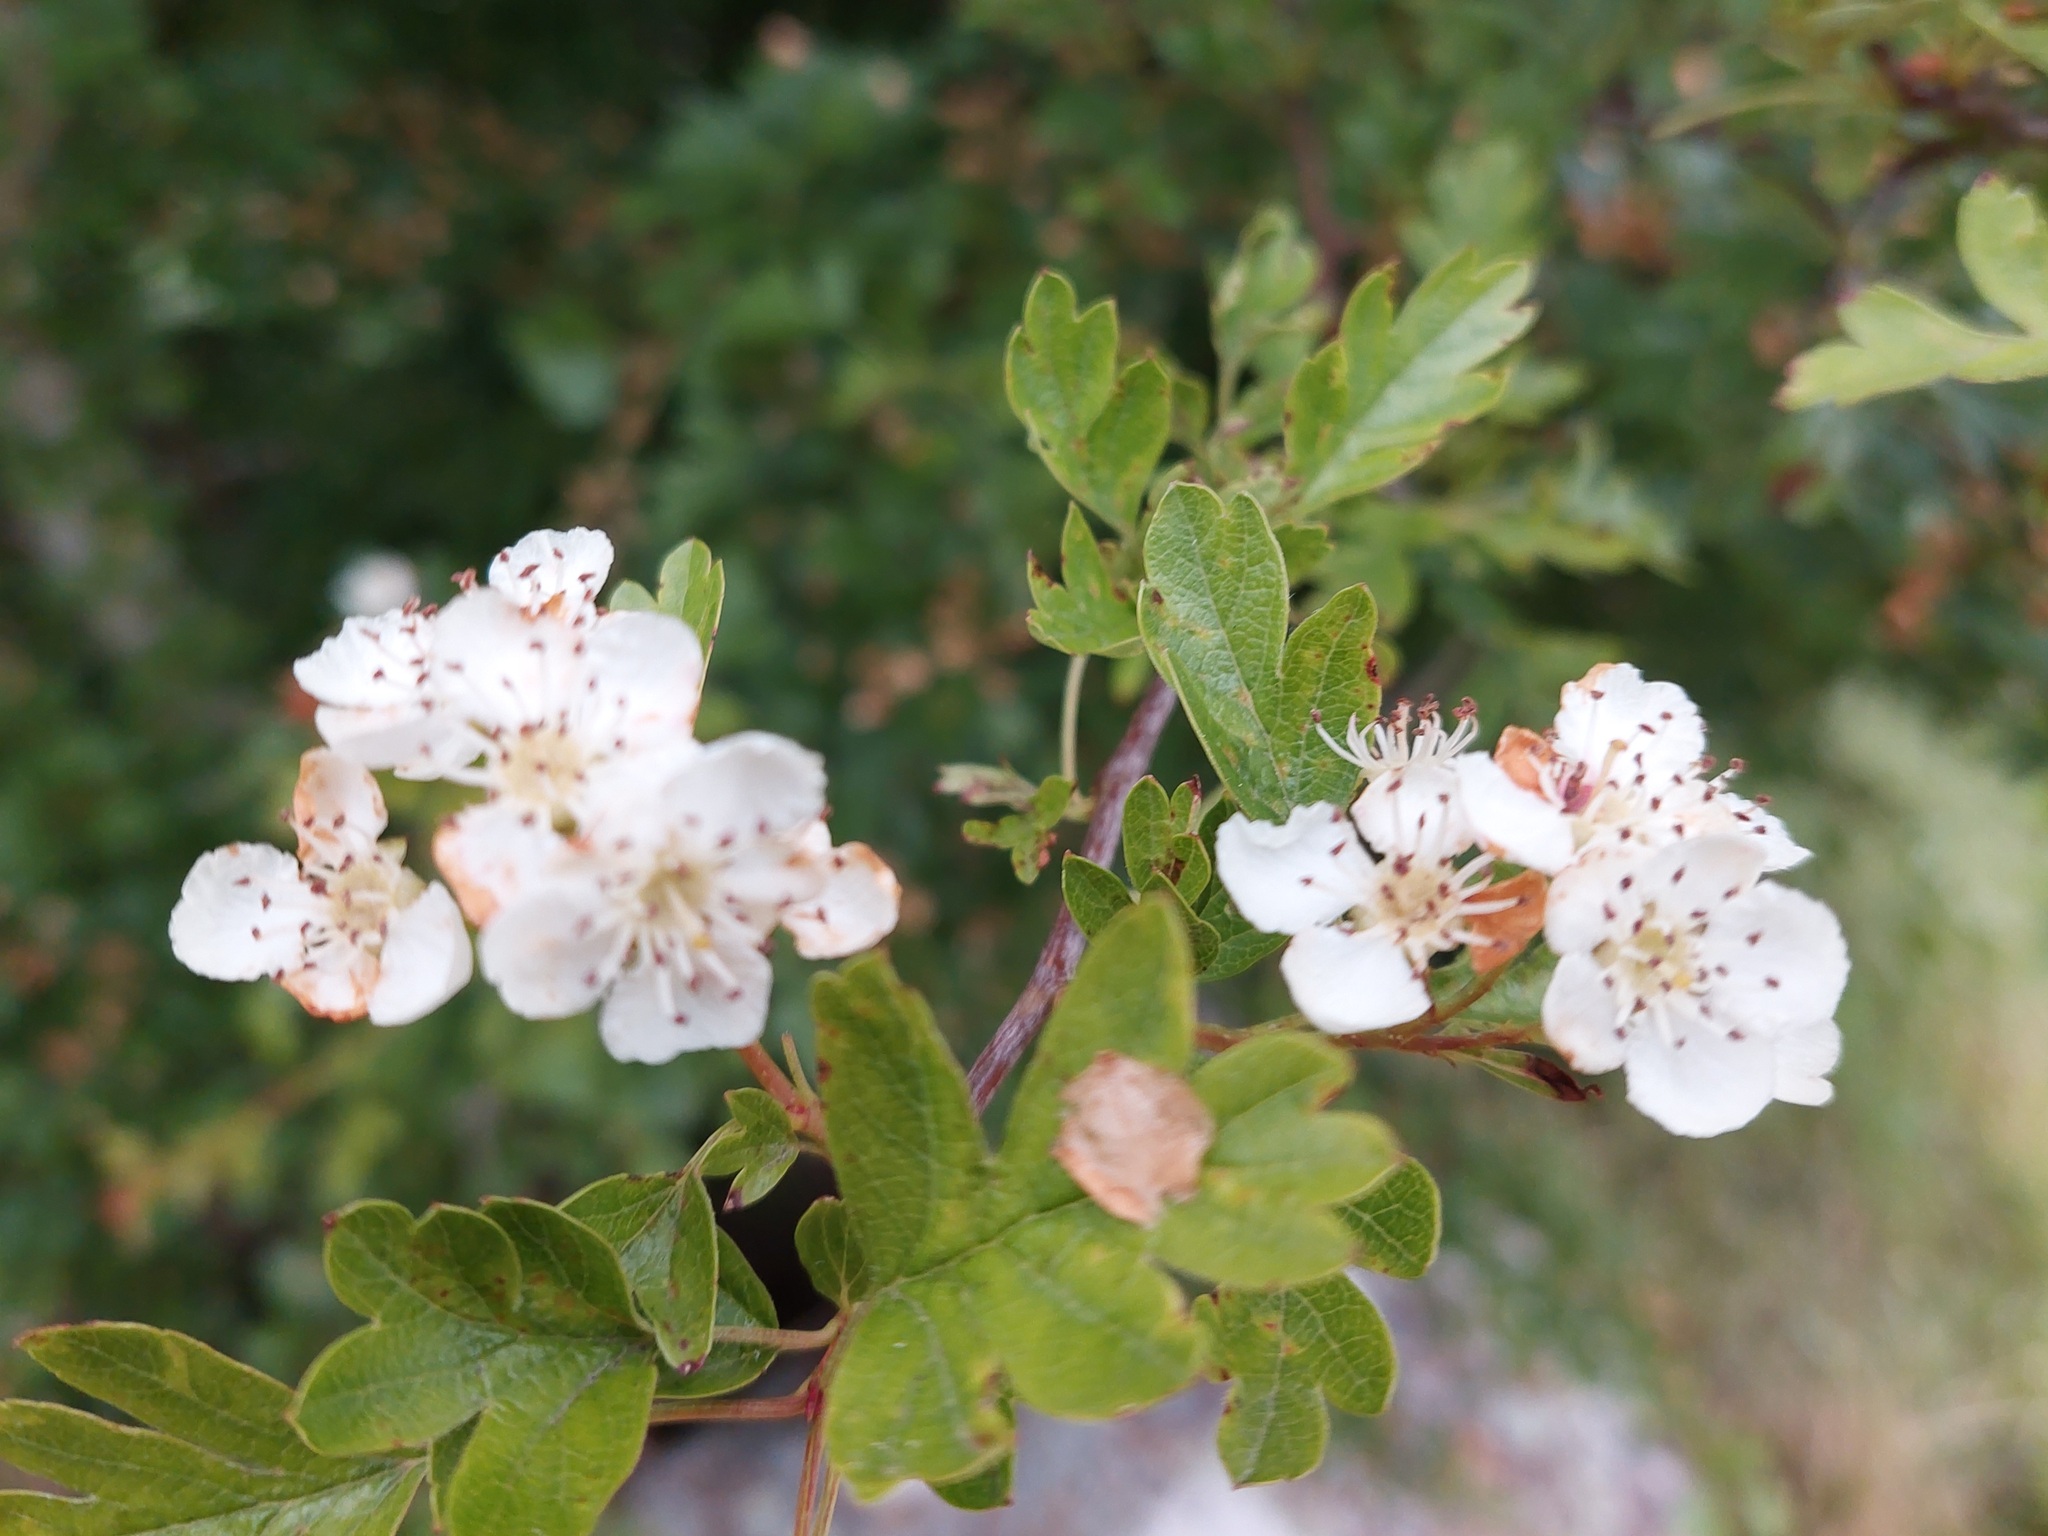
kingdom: Plantae
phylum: Tracheophyta
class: Magnoliopsida
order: Rosales
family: Rosaceae
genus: Crataegus
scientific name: Crataegus monogyna
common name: Hawthorn
